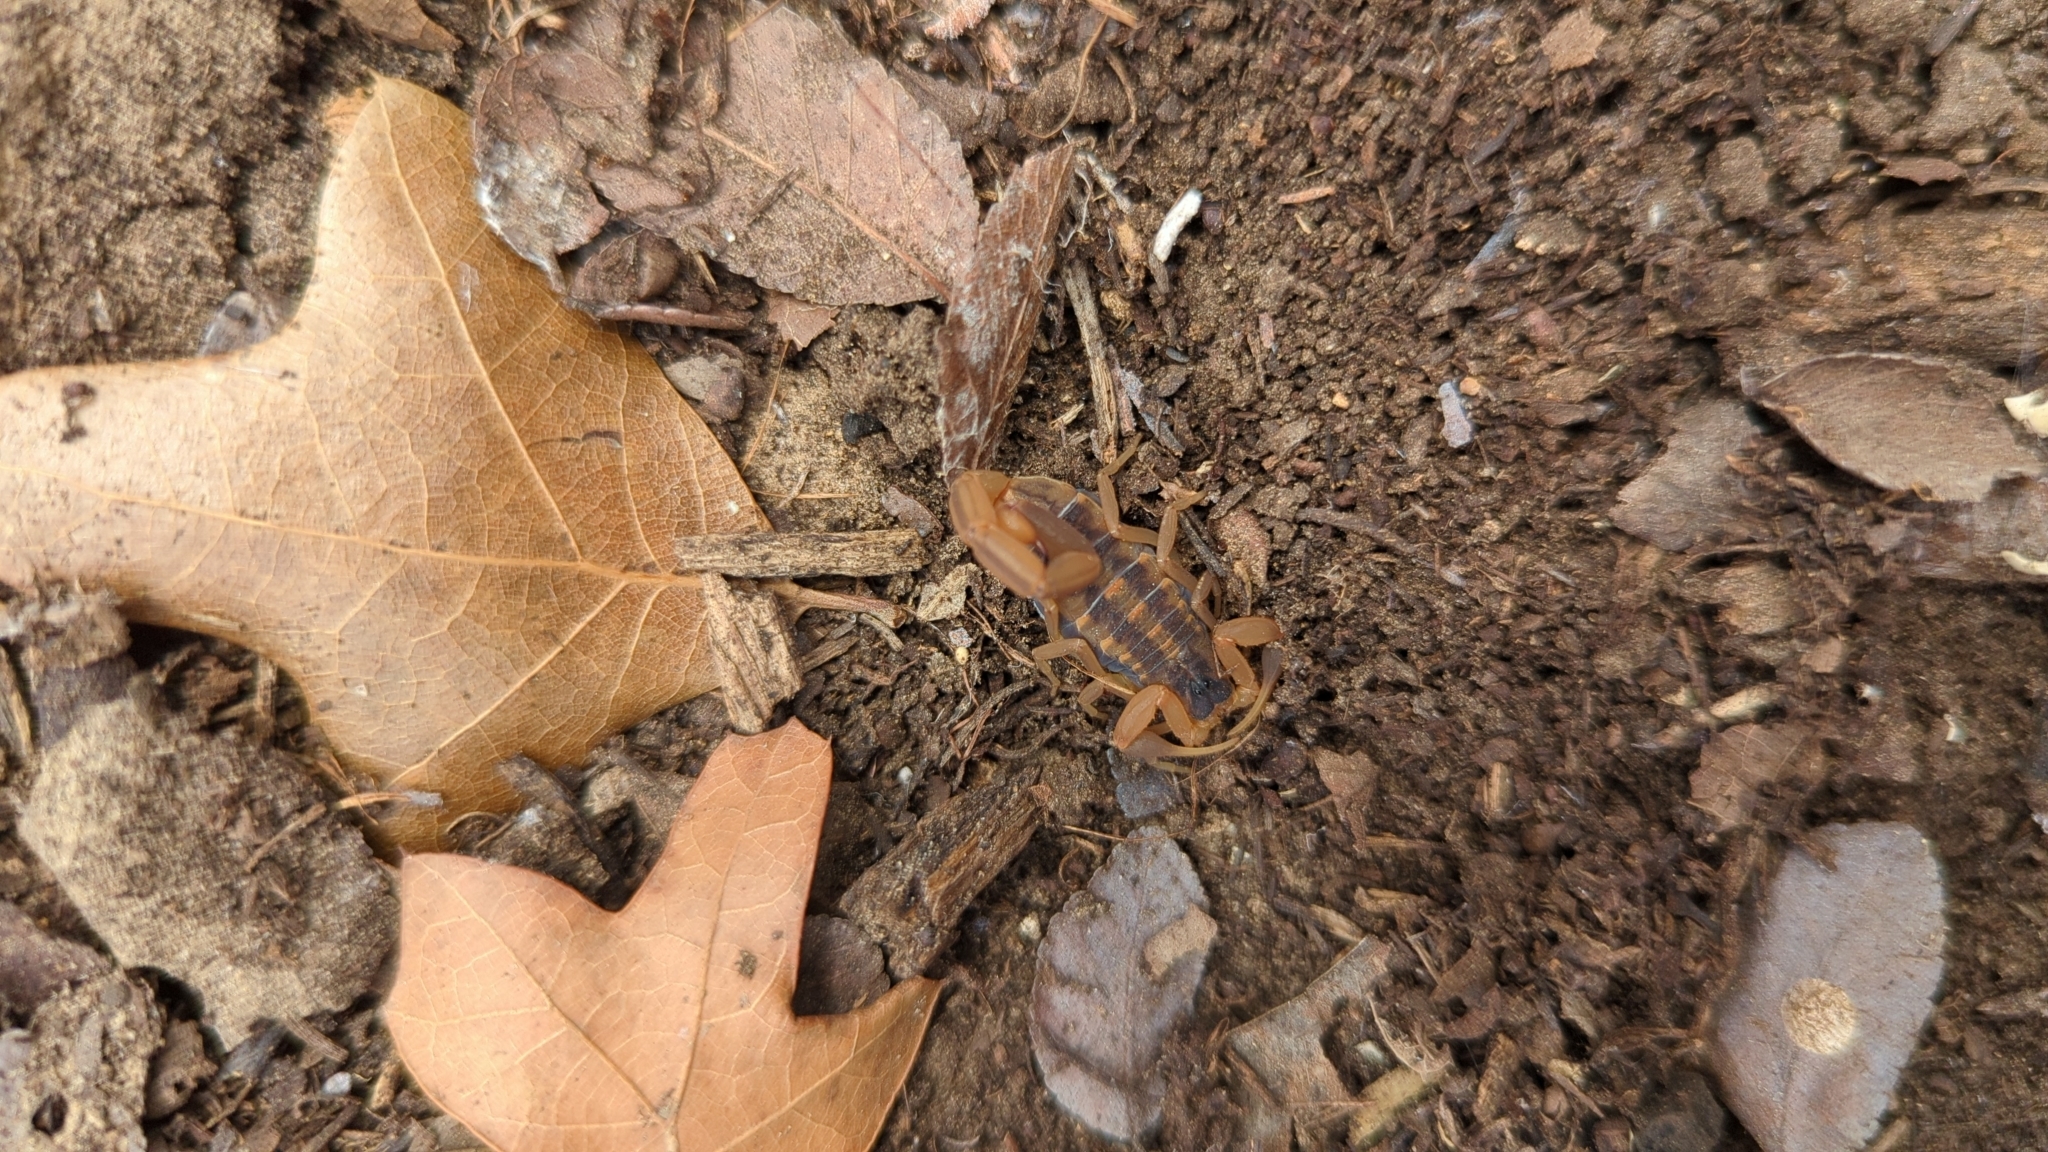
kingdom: Animalia
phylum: Arthropoda
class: Arachnida
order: Scorpiones
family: Buthidae
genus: Centruroides
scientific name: Centruroides vittatus
